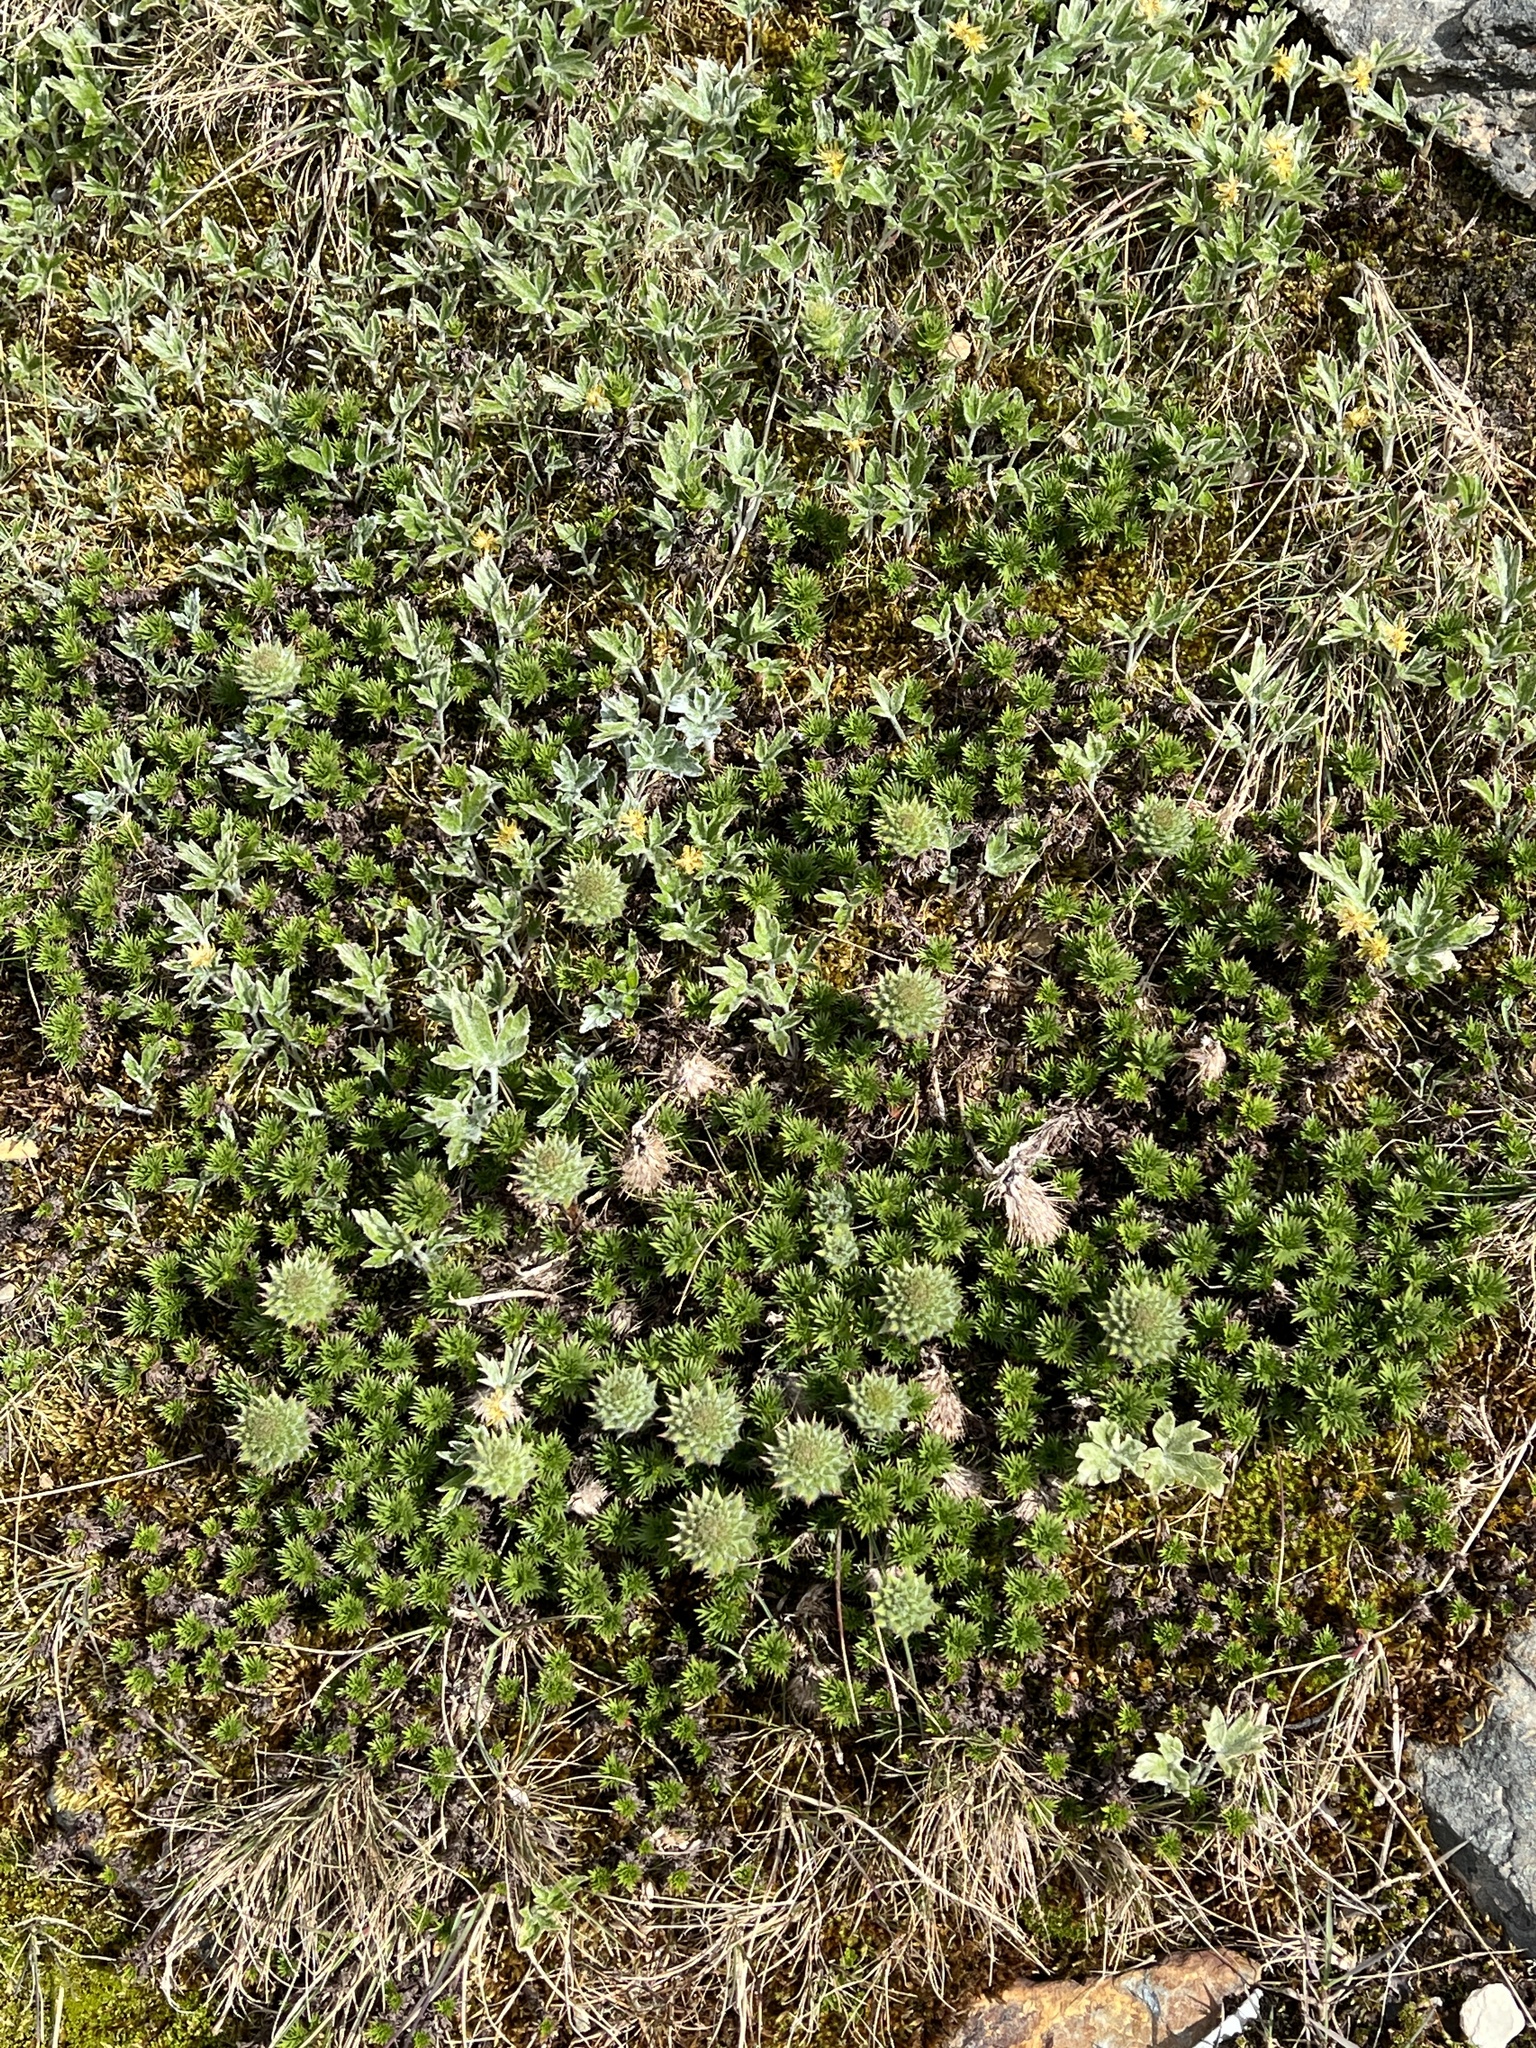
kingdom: Plantae
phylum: Tracheophyta
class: Magnoliopsida
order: Asterales
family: Asteraceae
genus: Nassauvia
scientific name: Nassauvia magellanica
